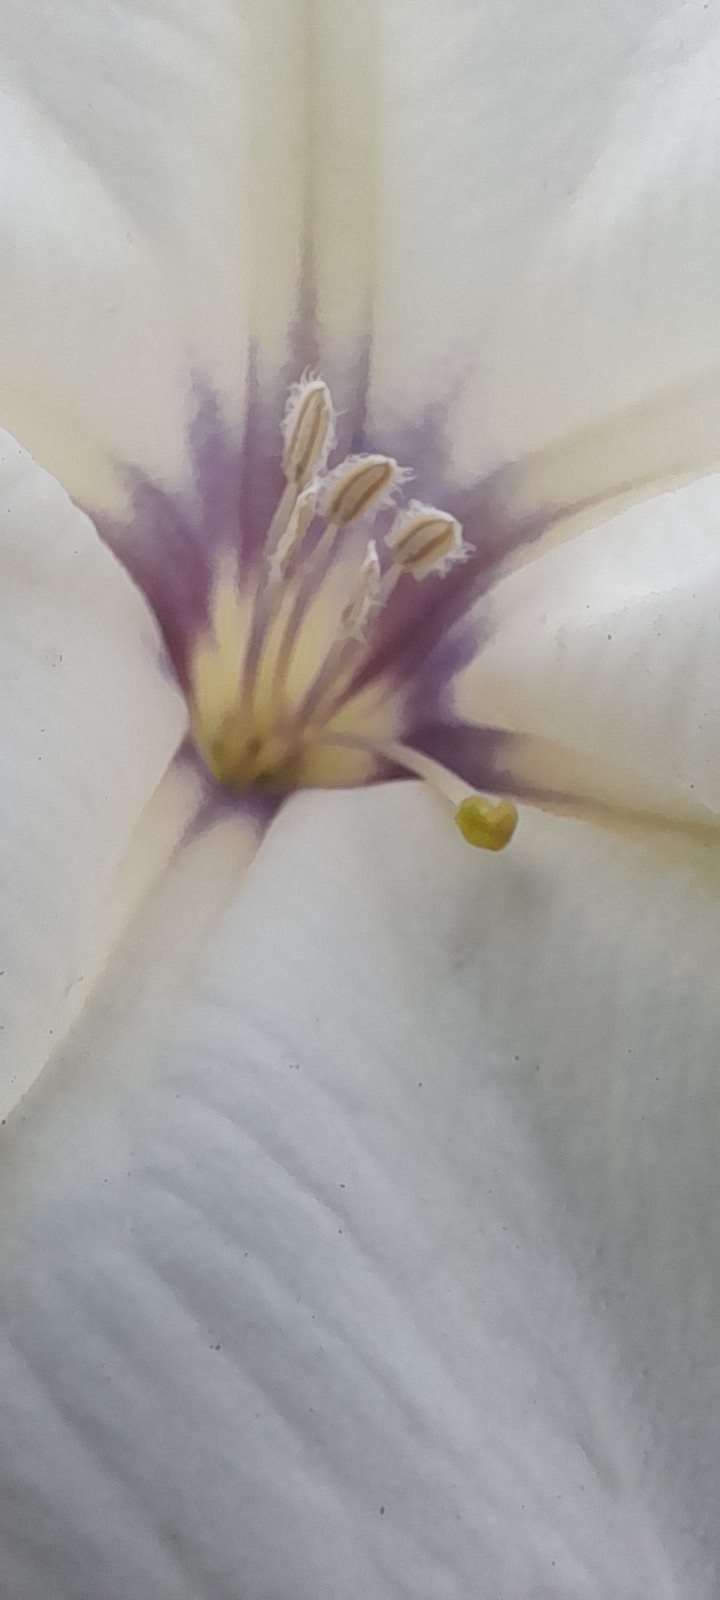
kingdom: Plantae
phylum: Tracheophyta
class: Magnoliopsida
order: Solanales
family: Solanaceae
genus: Datura
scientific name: Datura discolor
